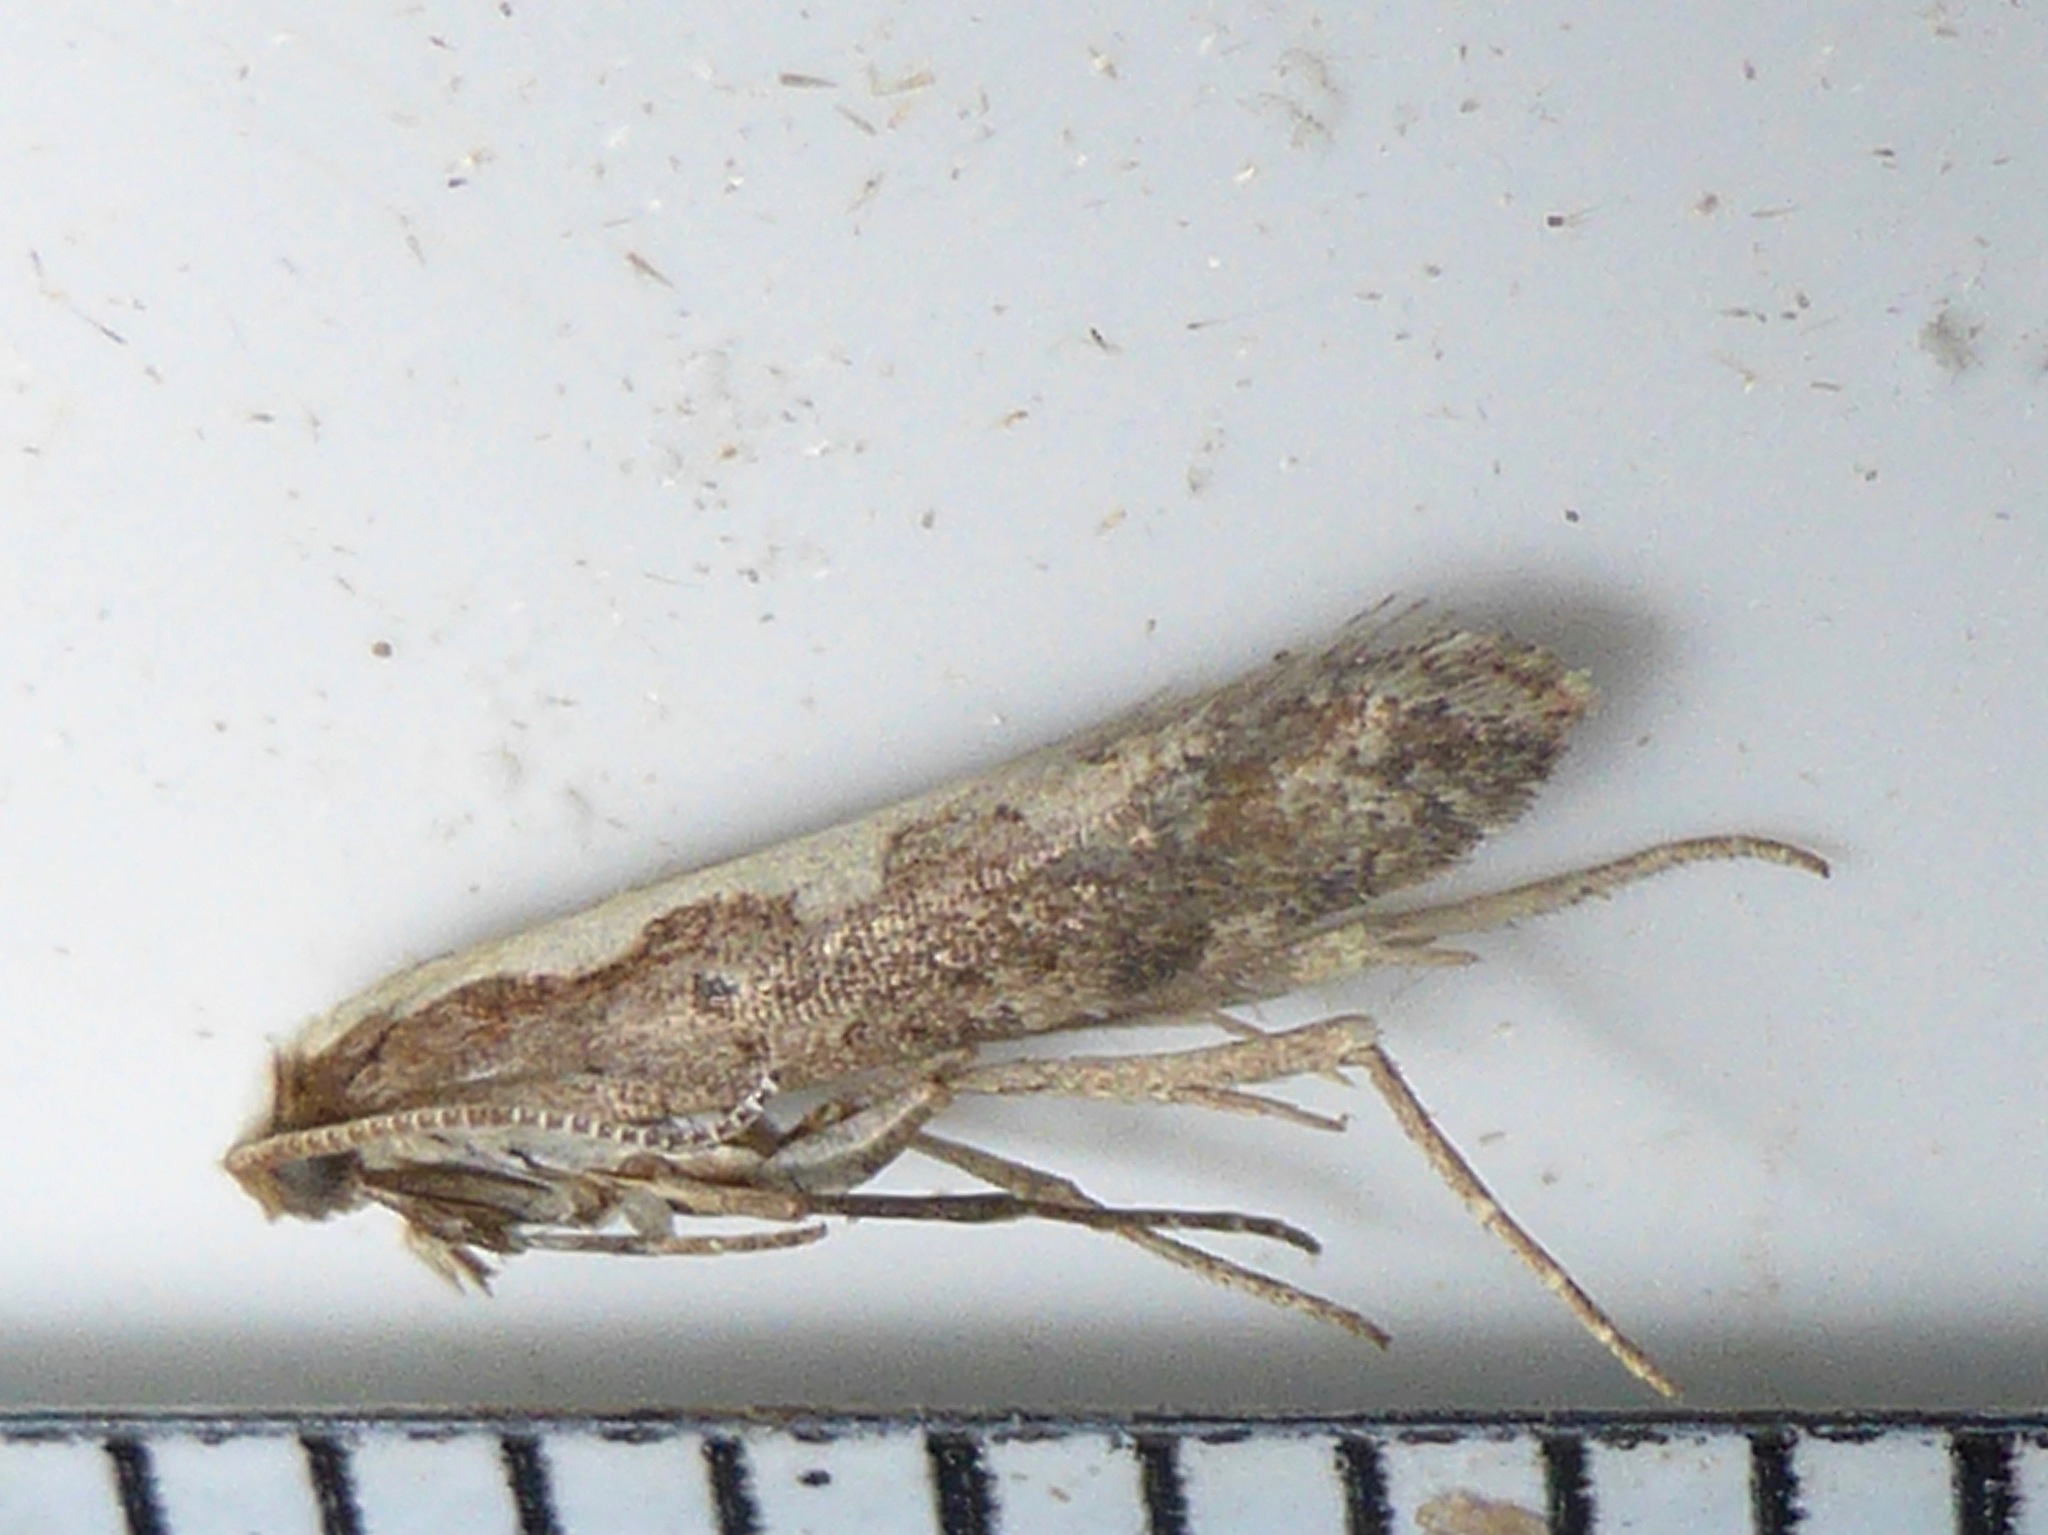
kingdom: Animalia
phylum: Arthropoda
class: Insecta
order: Lepidoptera
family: Plutellidae
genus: Plutella
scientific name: Plutella xylostella
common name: Diamond-back moth
